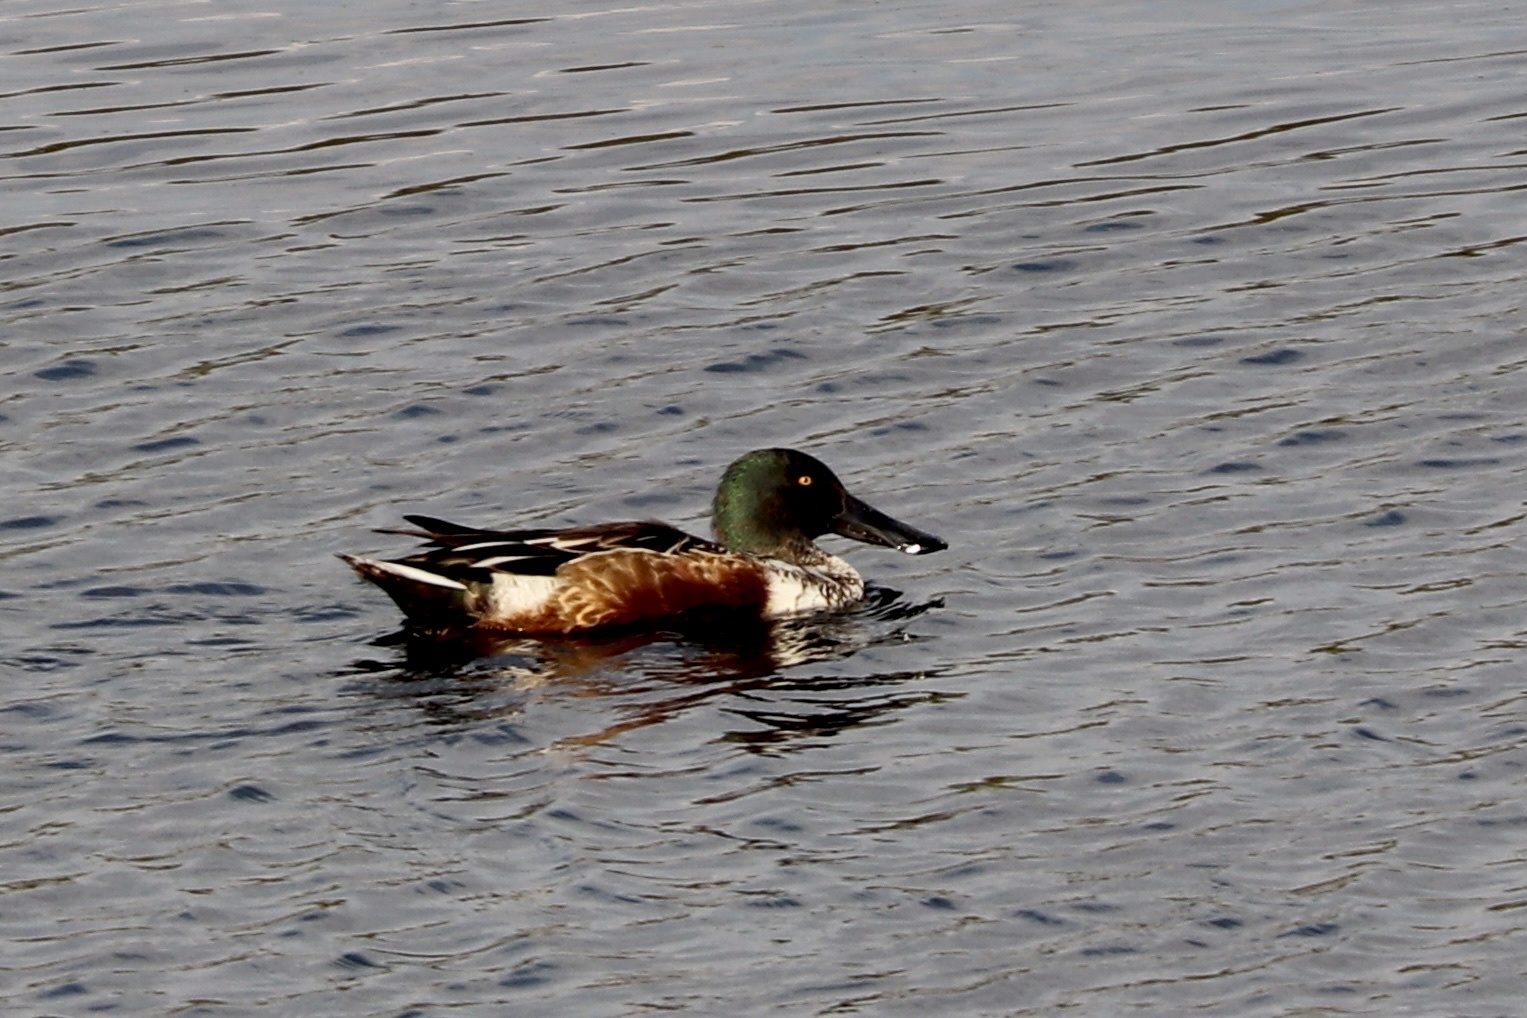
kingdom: Animalia
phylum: Chordata
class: Aves
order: Anseriformes
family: Anatidae
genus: Spatula
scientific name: Spatula clypeata
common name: Northern shoveler
